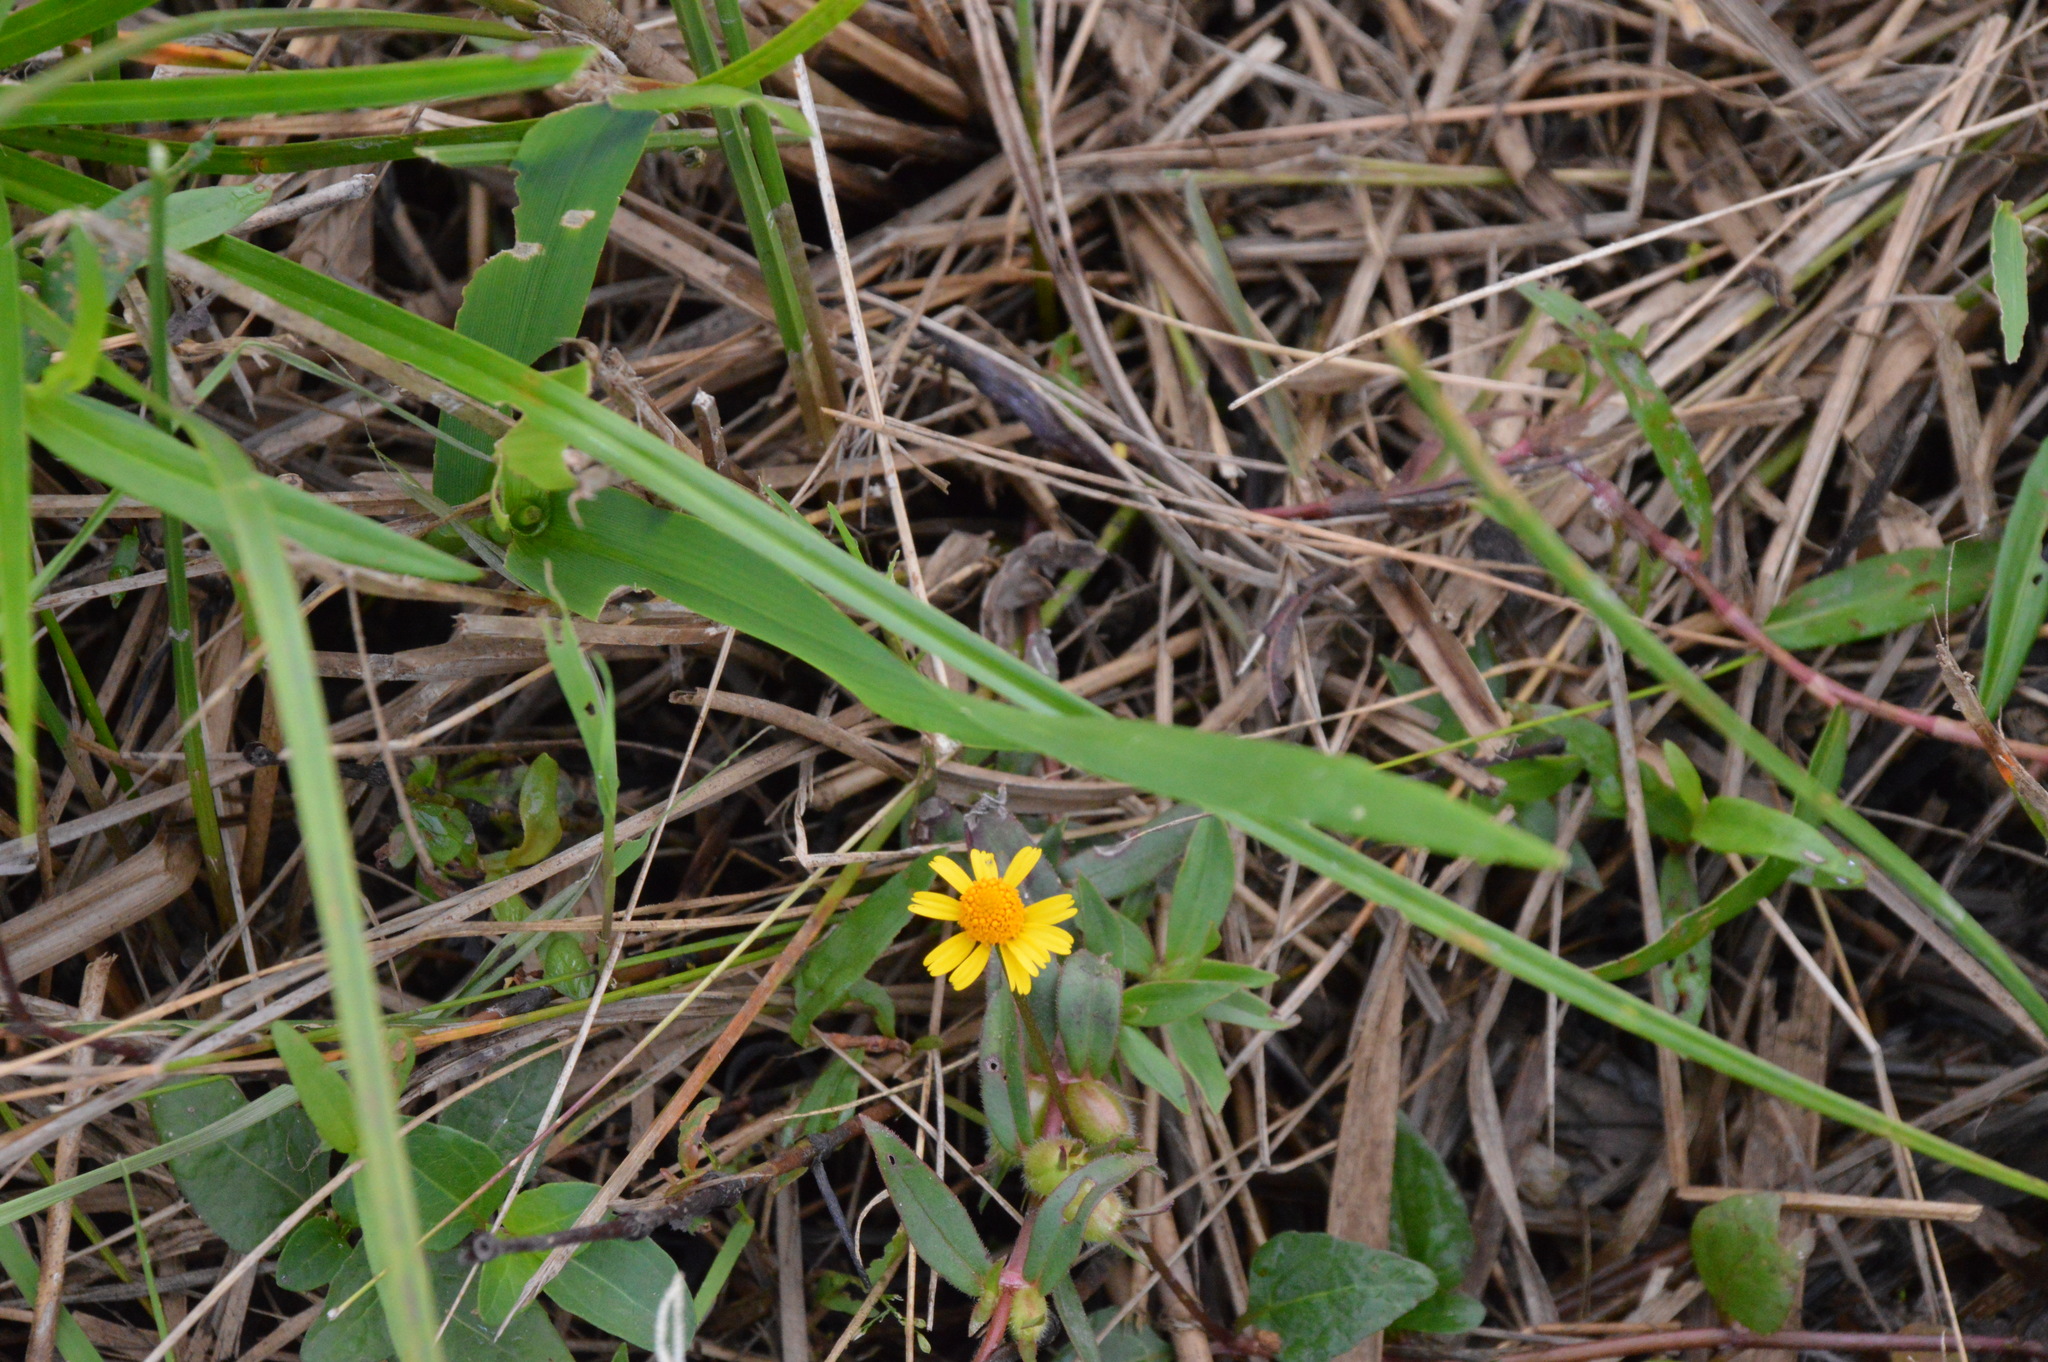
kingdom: Plantae
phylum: Tracheophyta
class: Magnoliopsida
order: Asterales
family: Asteraceae
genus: Acmella
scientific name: Acmella repens
